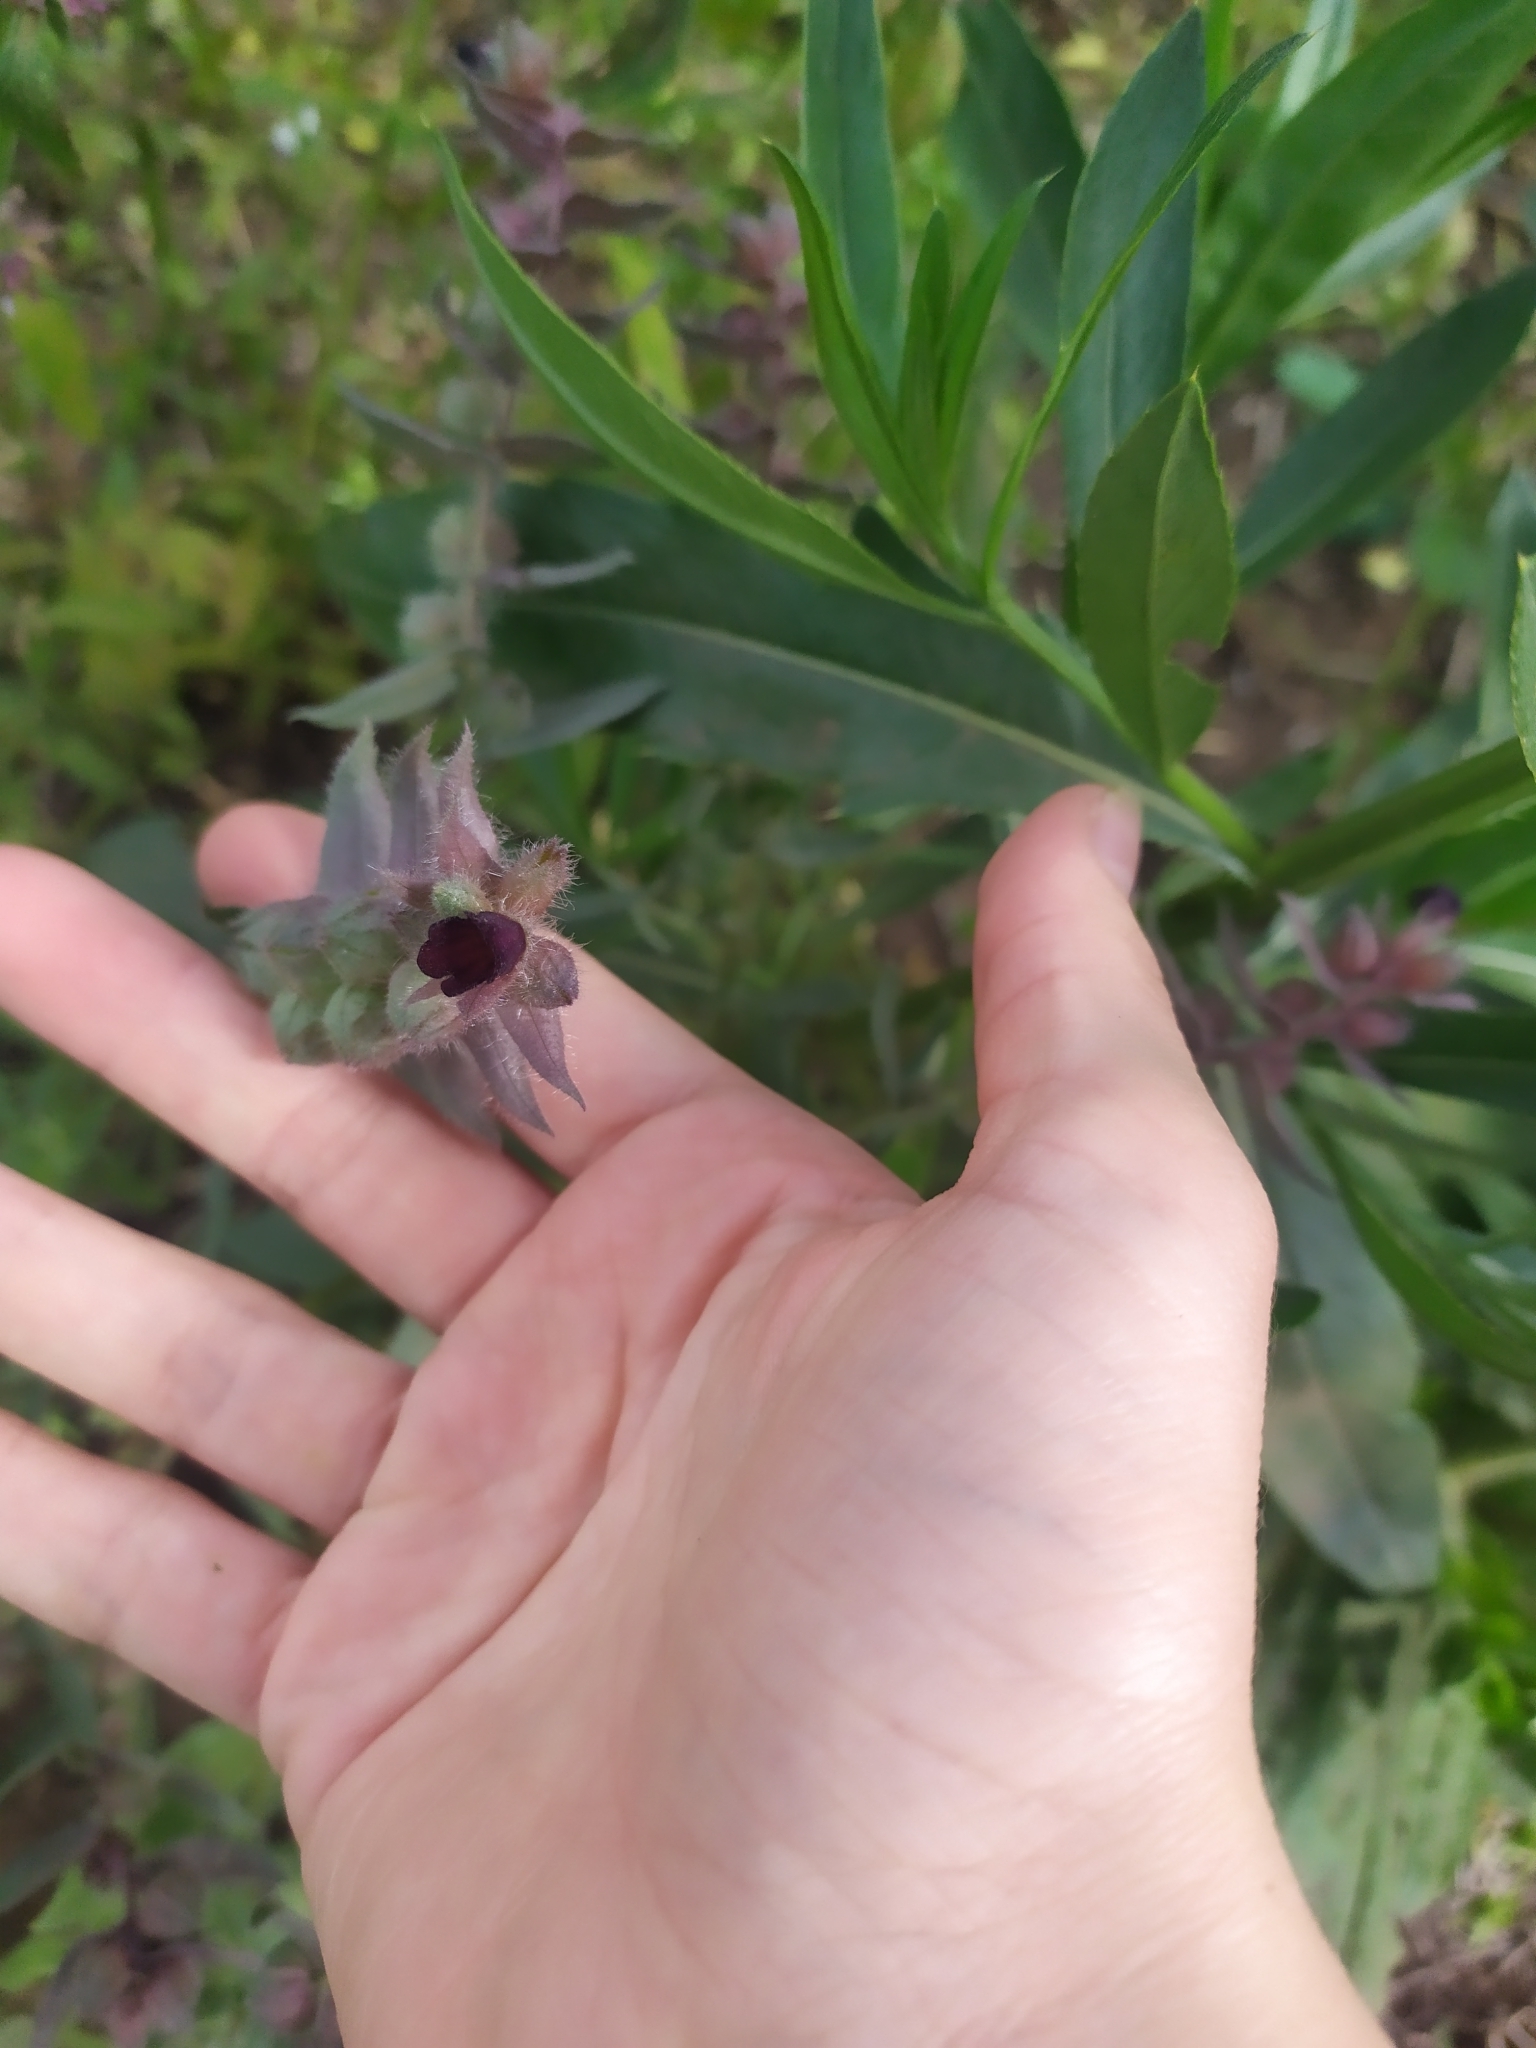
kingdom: Plantae
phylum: Tracheophyta
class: Magnoliopsida
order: Boraginales
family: Boraginaceae
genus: Nonea
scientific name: Nonea pulla
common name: Brown nonea
